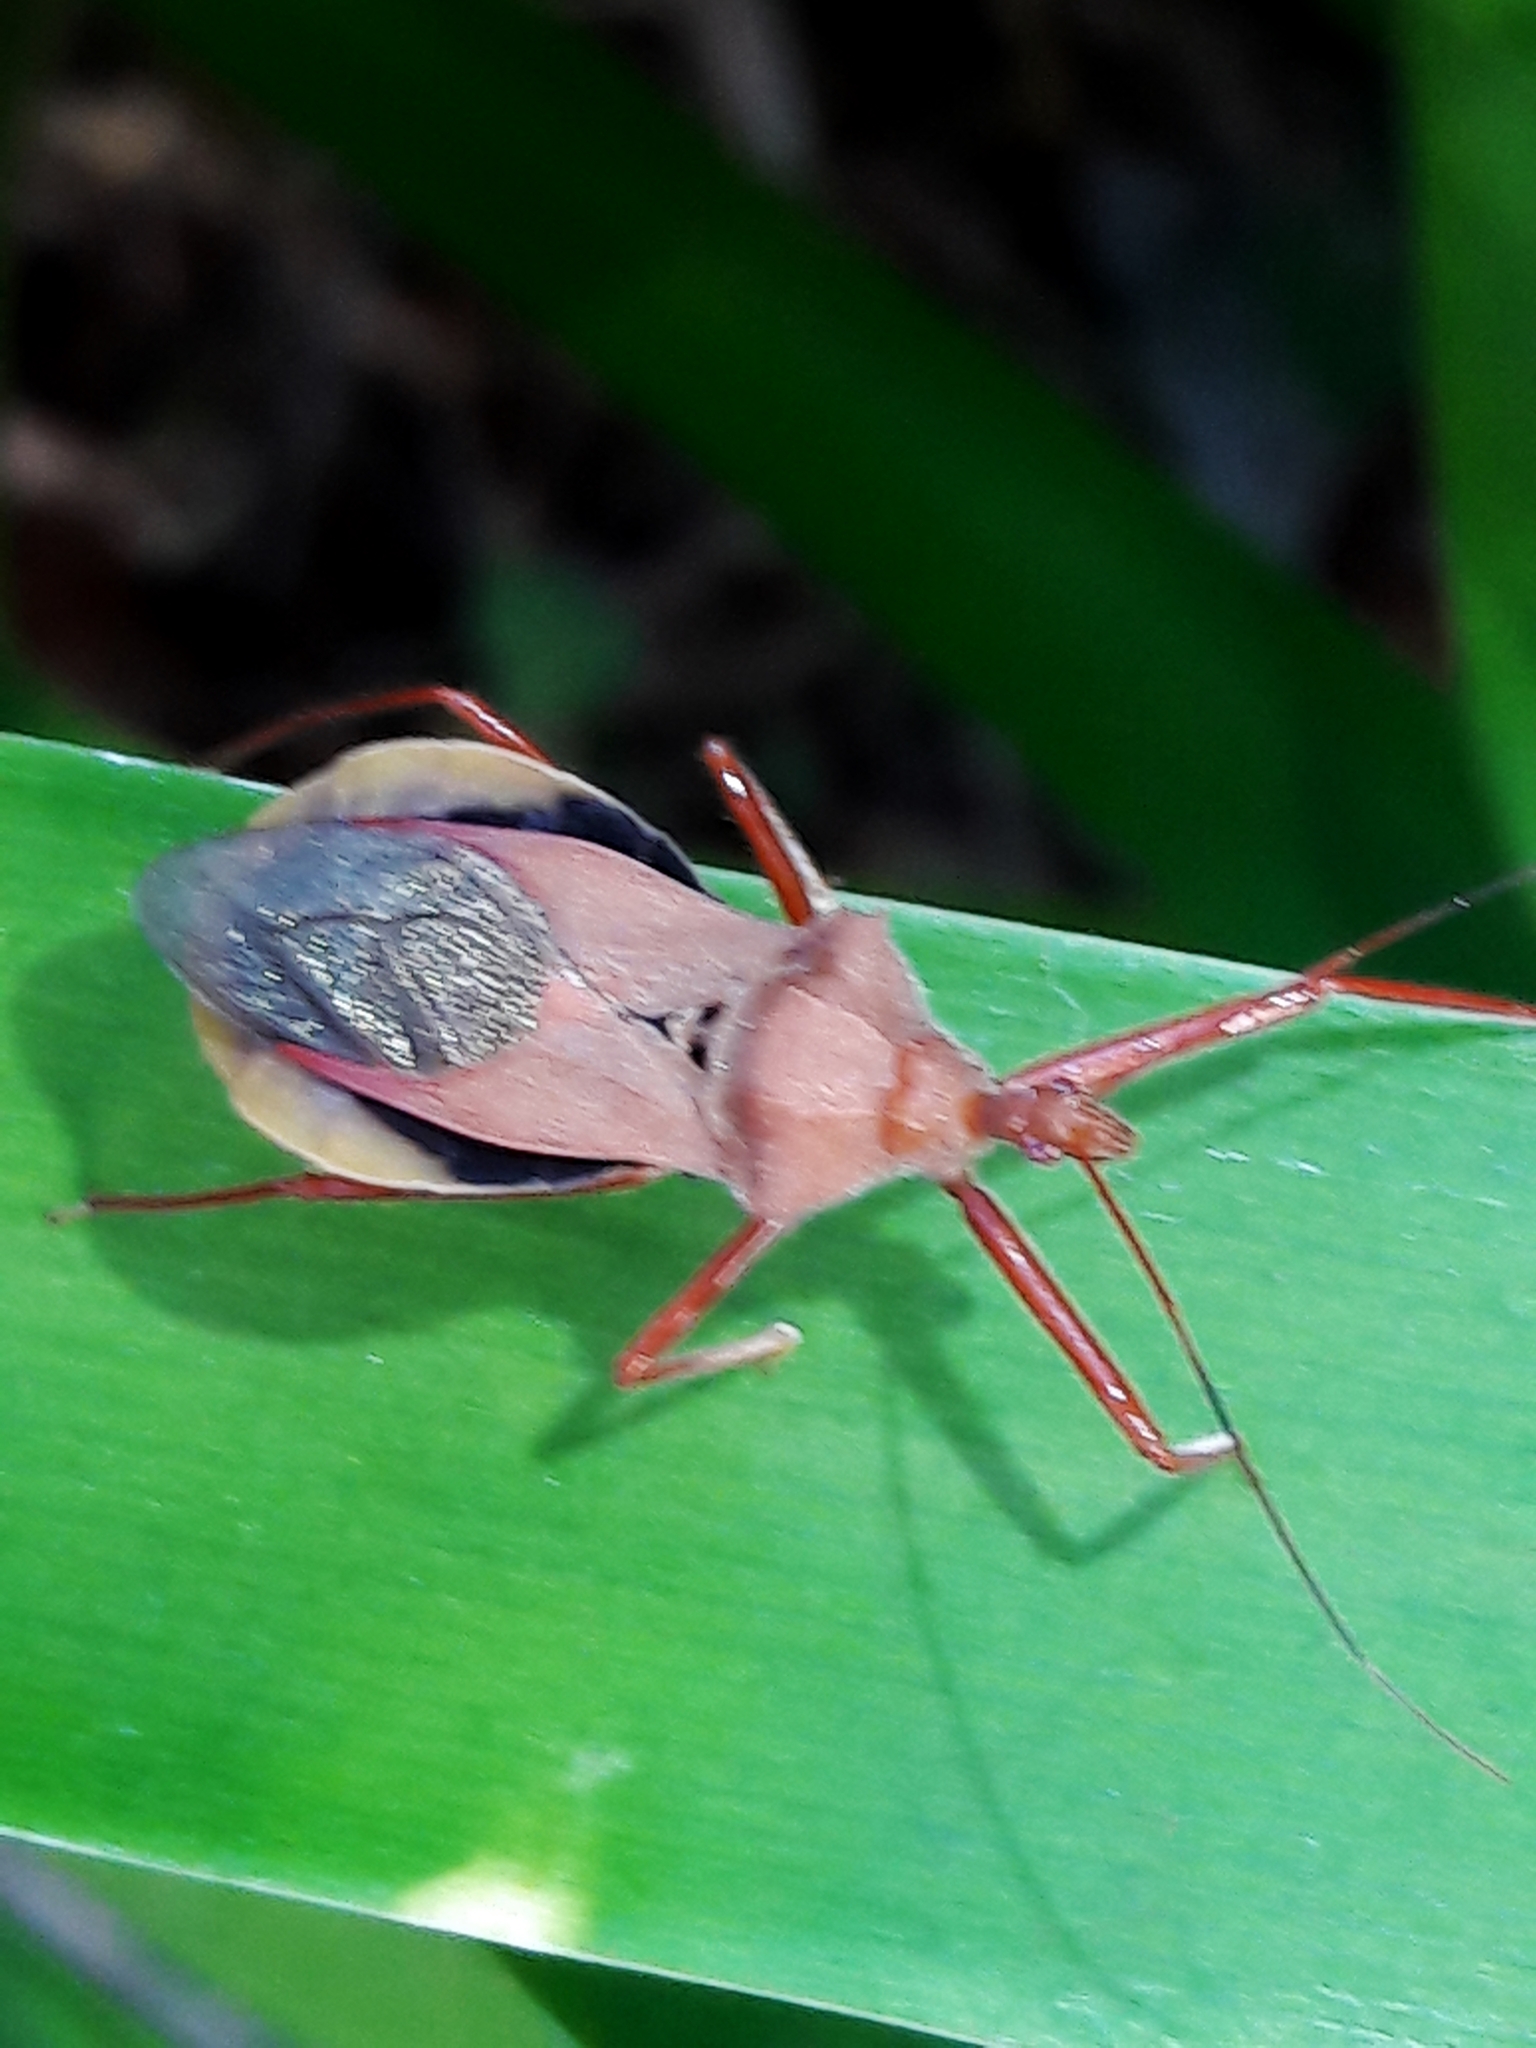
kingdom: Animalia
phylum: Arthropoda
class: Insecta
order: Hemiptera
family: Reduviidae
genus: Montina
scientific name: Montina confusa
